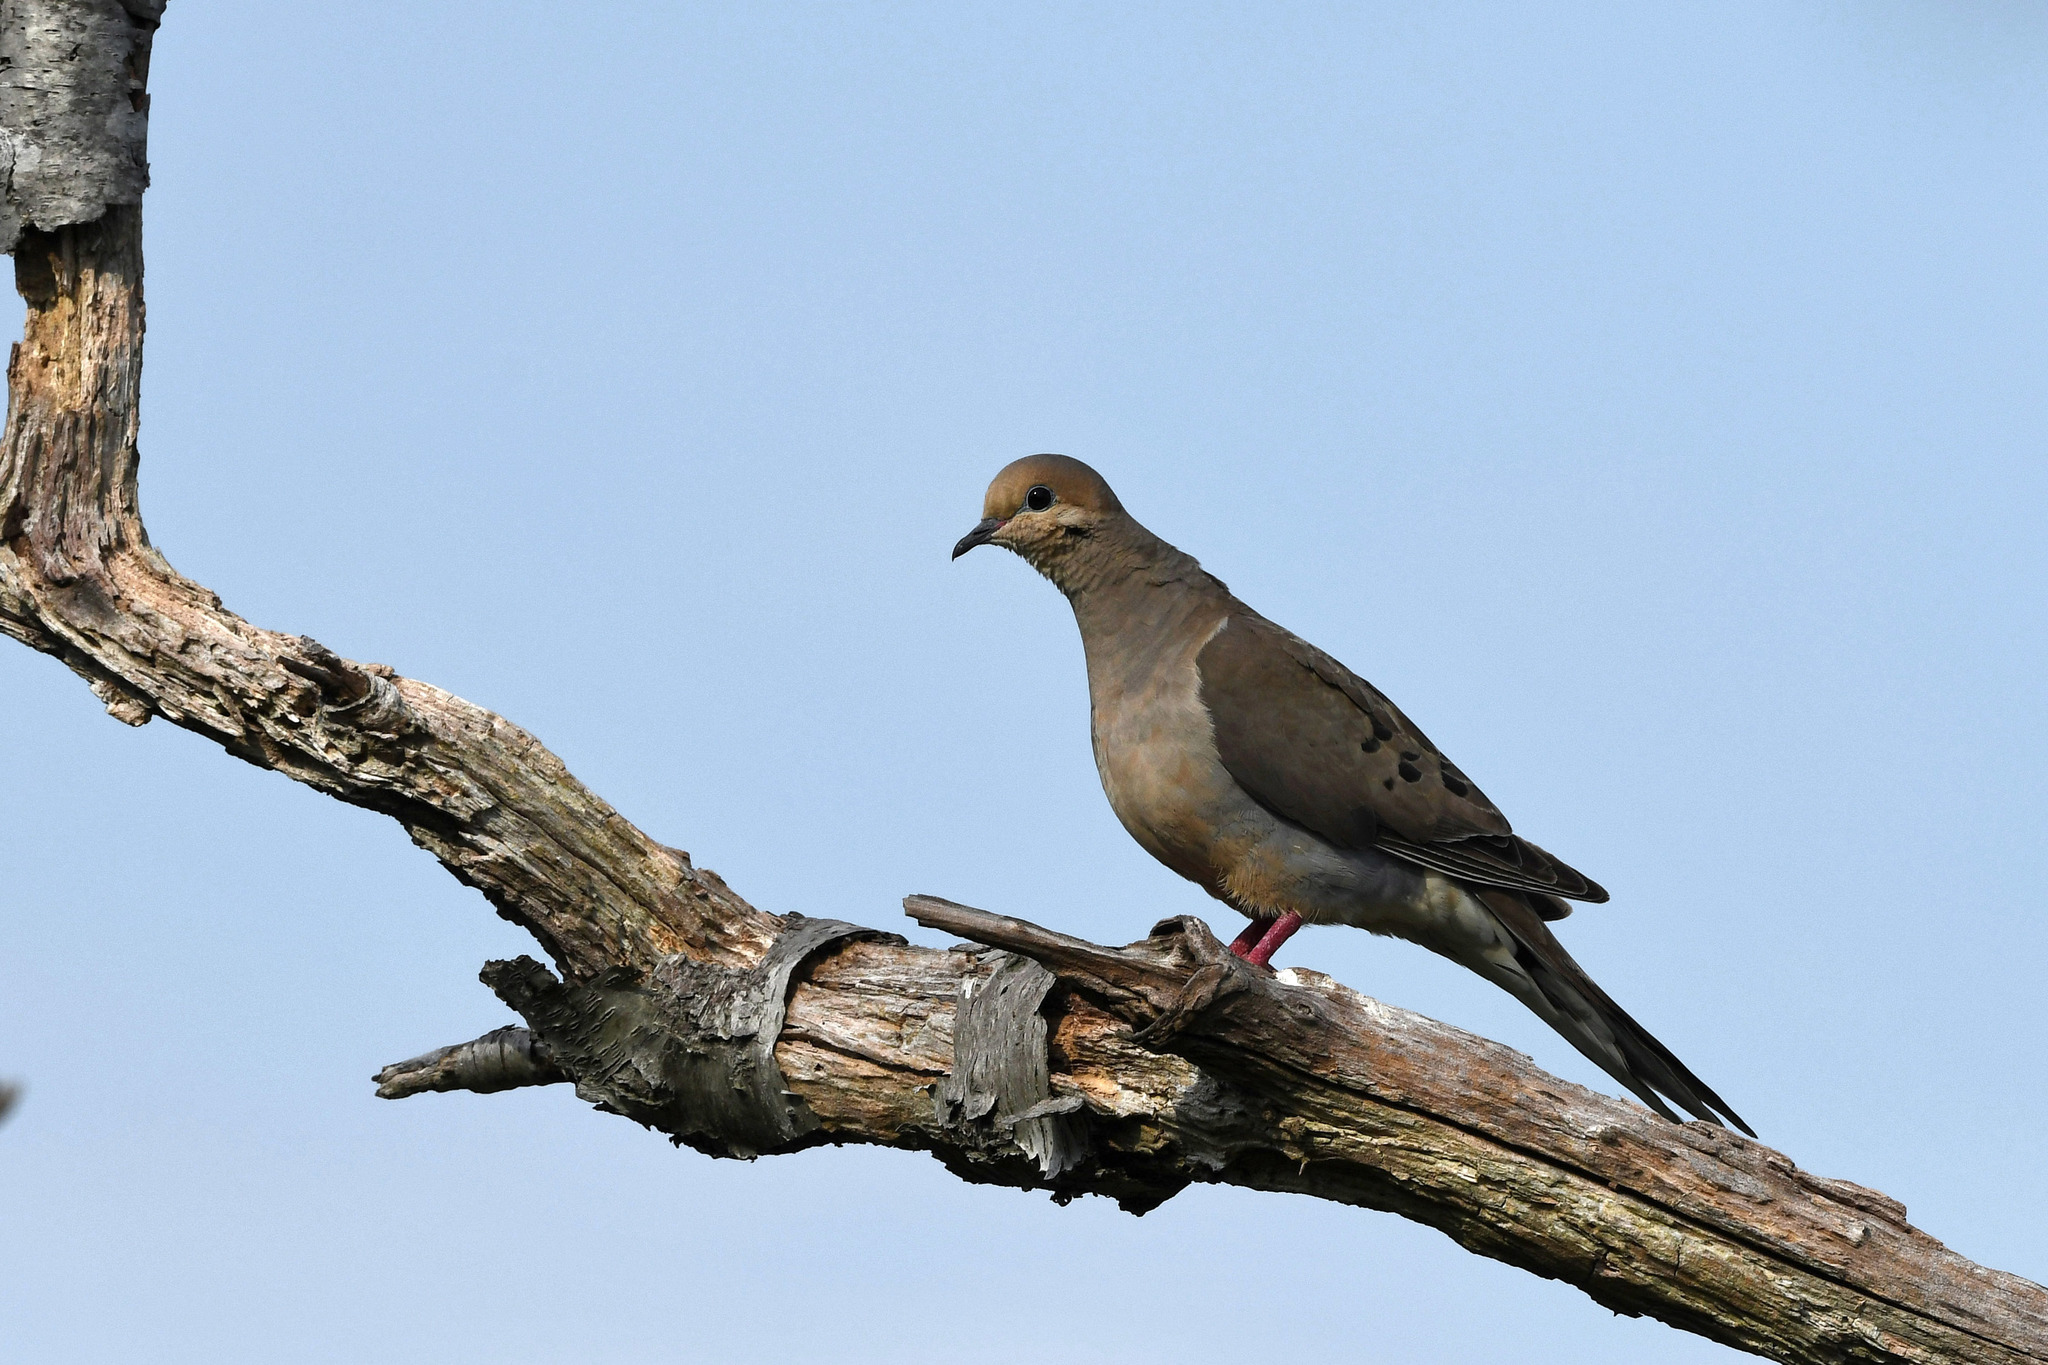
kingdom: Animalia
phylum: Chordata
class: Aves
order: Columbiformes
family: Columbidae
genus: Zenaida
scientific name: Zenaida macroura
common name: Mourning dove
